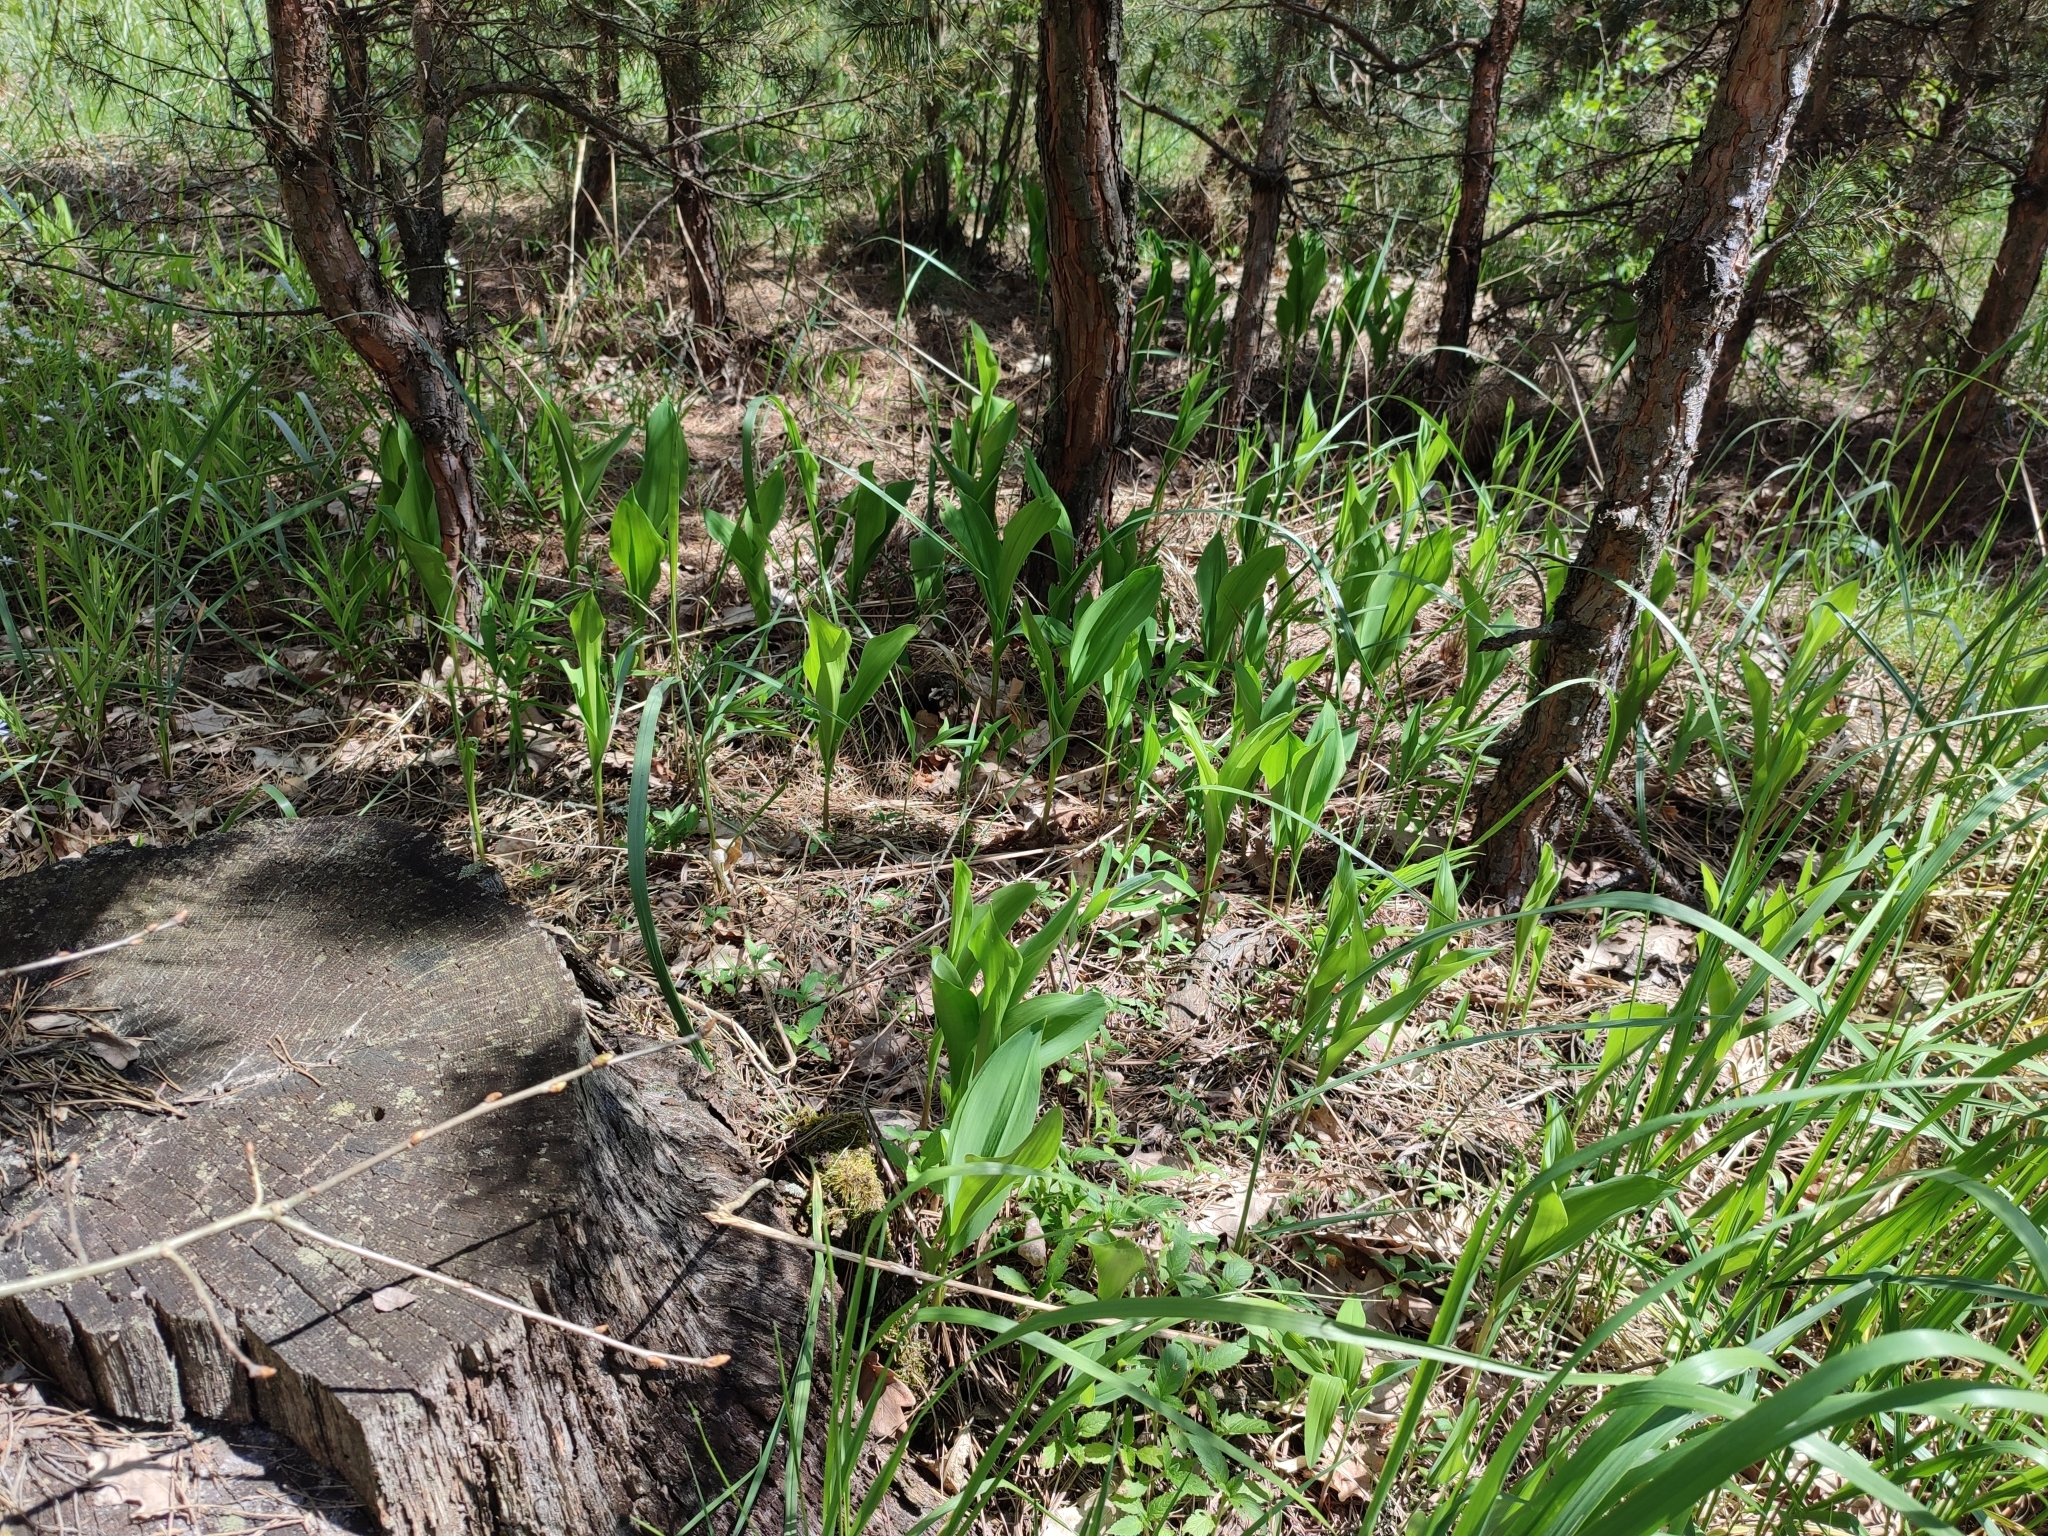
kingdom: Plantae
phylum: Tracheophyta
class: Liliopsida
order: Asparagales
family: Asparagaceae
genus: Convallaria
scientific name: Convallaria majalis
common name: Lily-of-the-valley
